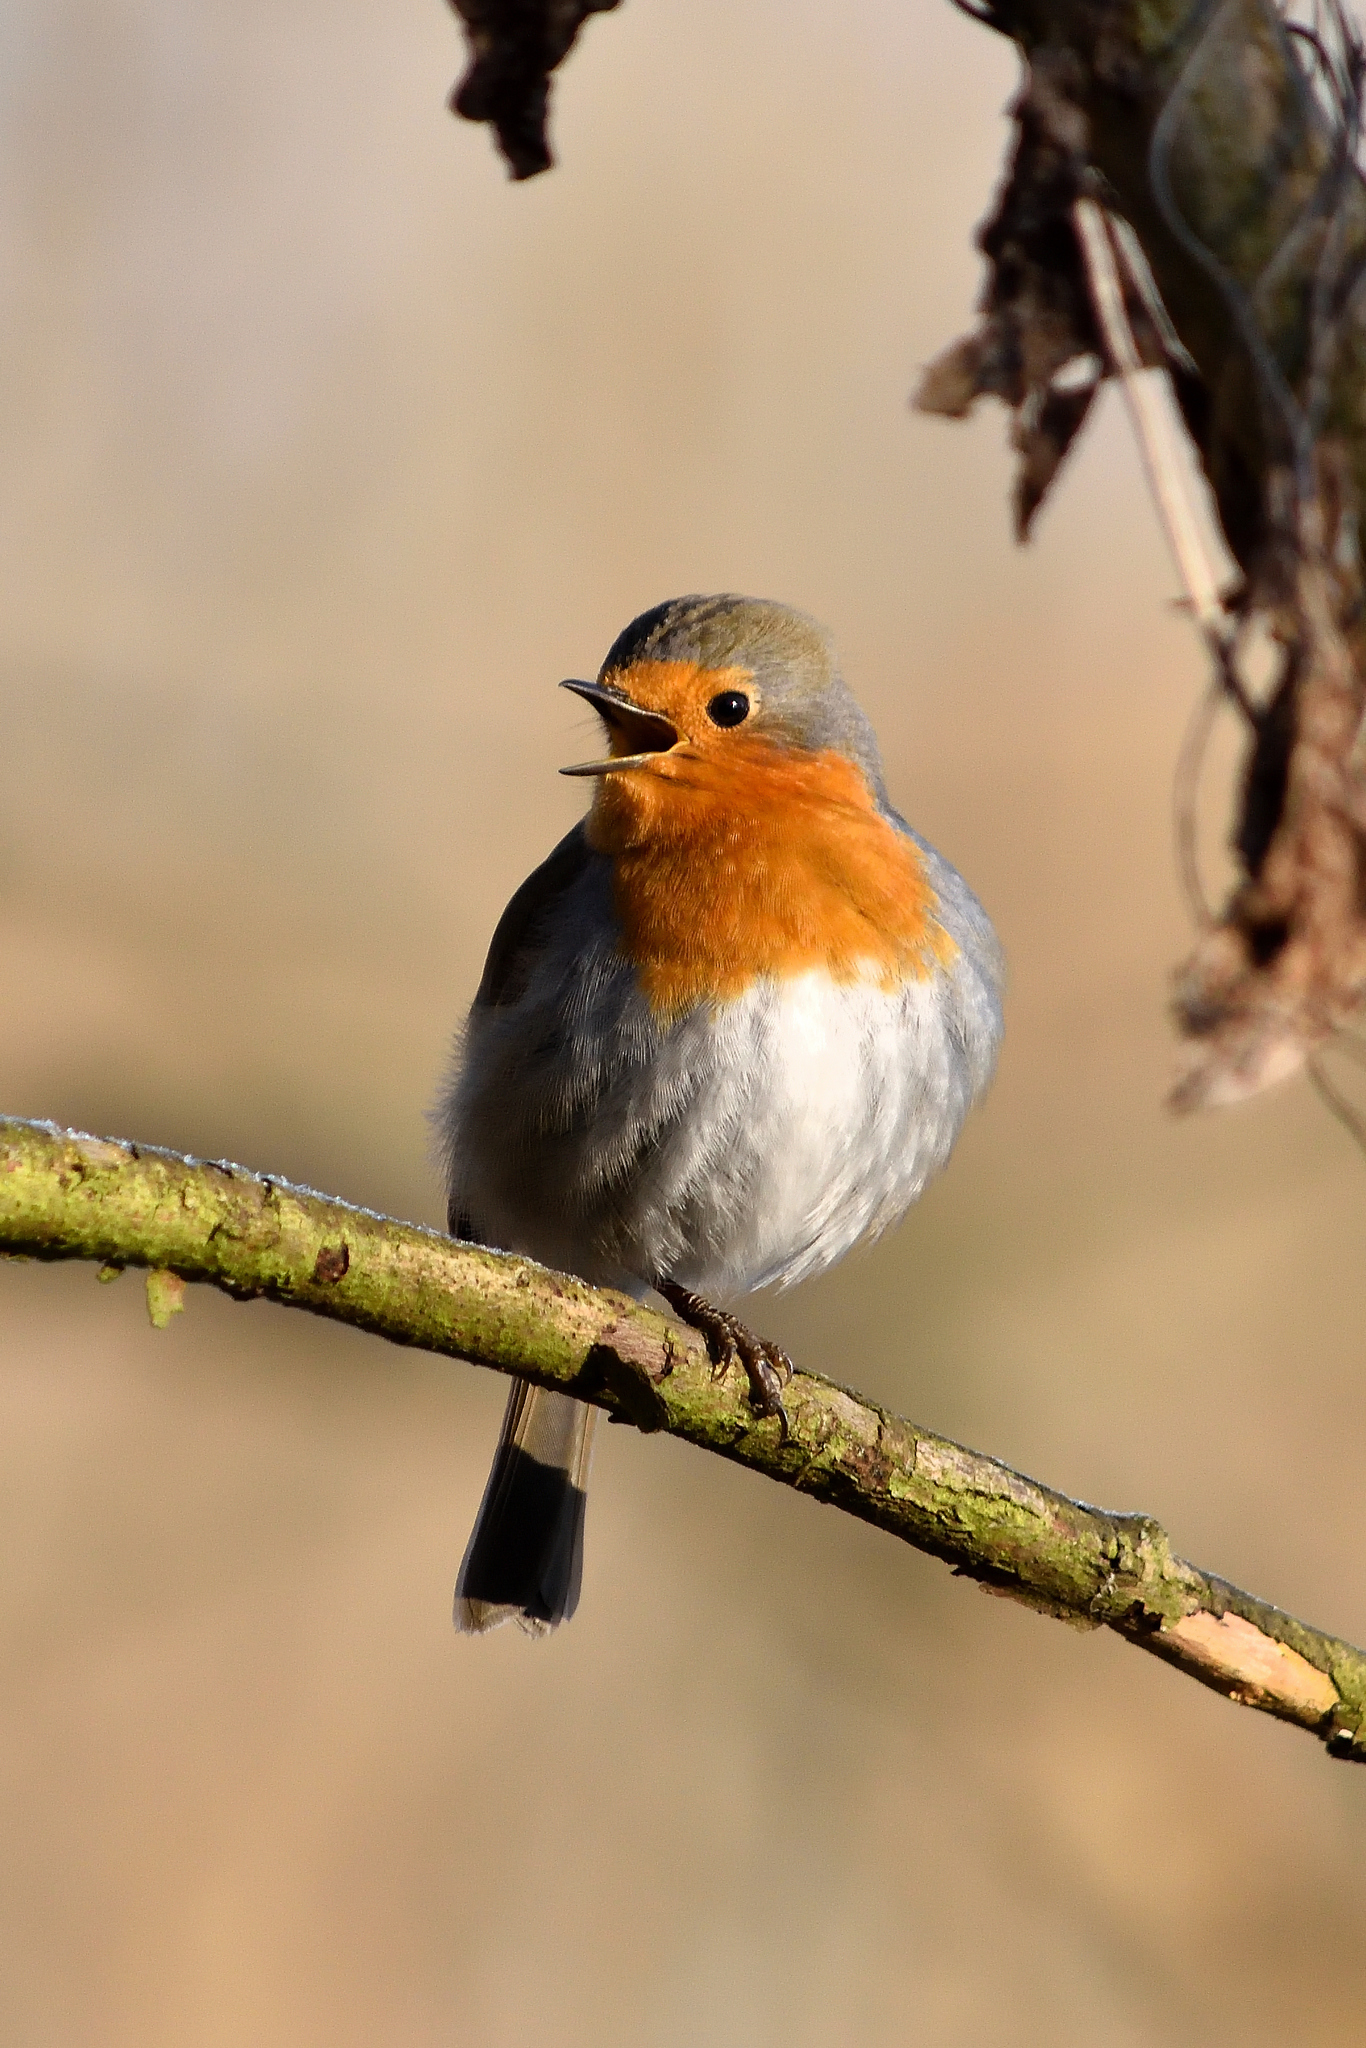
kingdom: Animalia
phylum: Chordata
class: Aves
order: Passeriformes
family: Muscicapidae
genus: Erithacus
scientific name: Erithacus rubecula
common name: European robin
